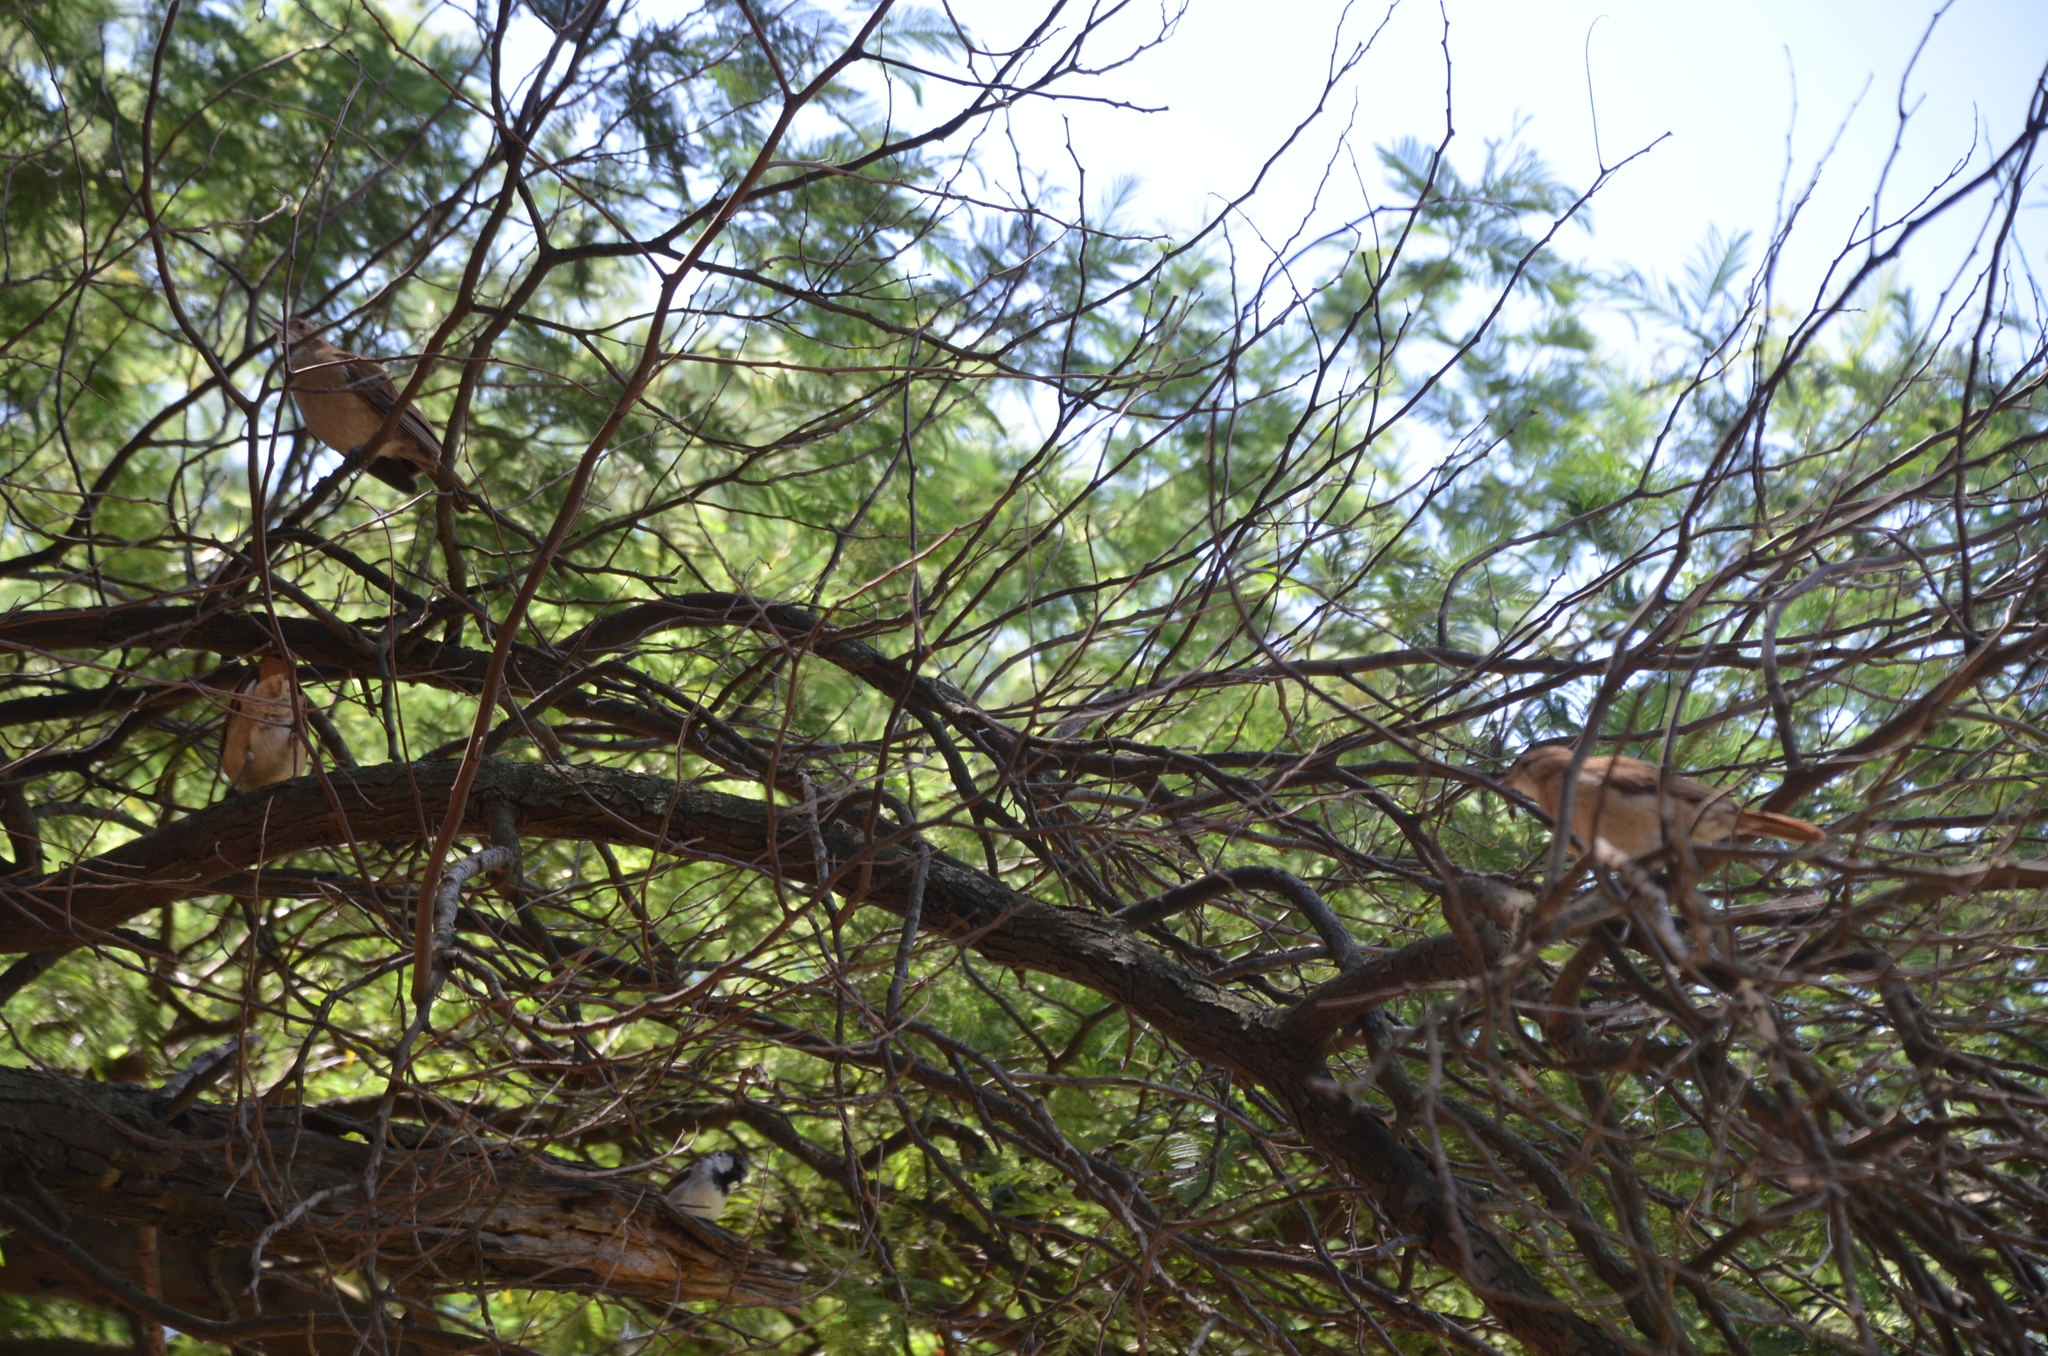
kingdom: Animalia
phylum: Chordata
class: Aves
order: Passeriformes
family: Furnariidae
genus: Furnarius
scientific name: Furnarius rufus
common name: Rufous hornero
